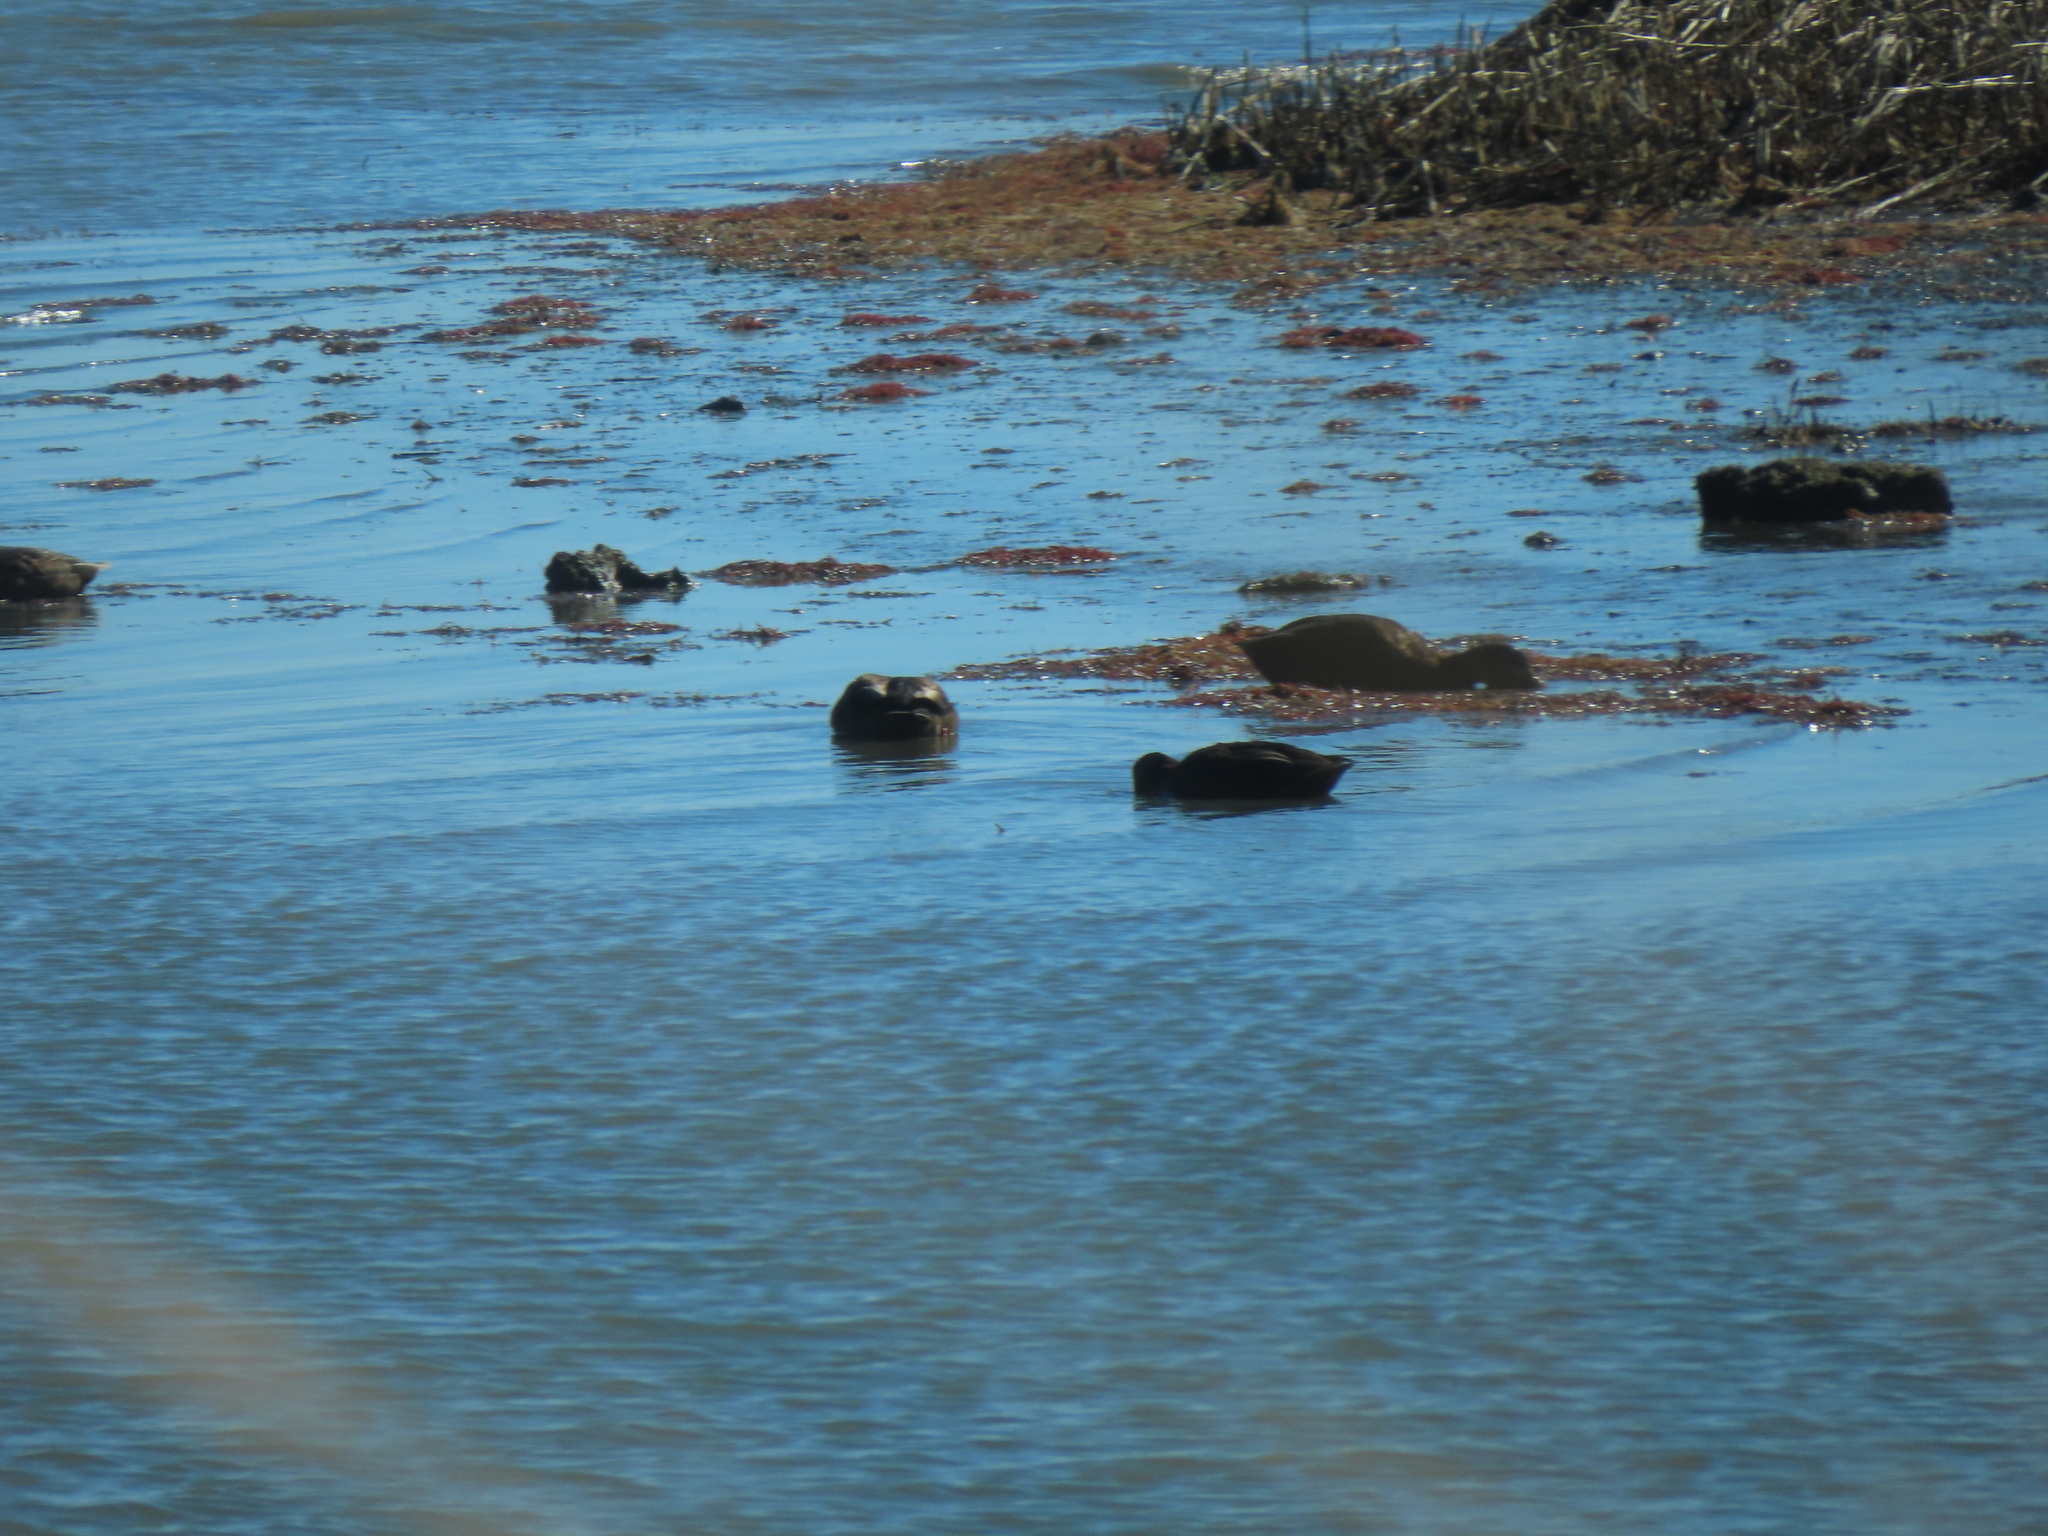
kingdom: Animalia
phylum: Chordata
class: Aves
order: Anseriformes
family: Anatidae
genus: Anas
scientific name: Anas rubripes
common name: American black duck
